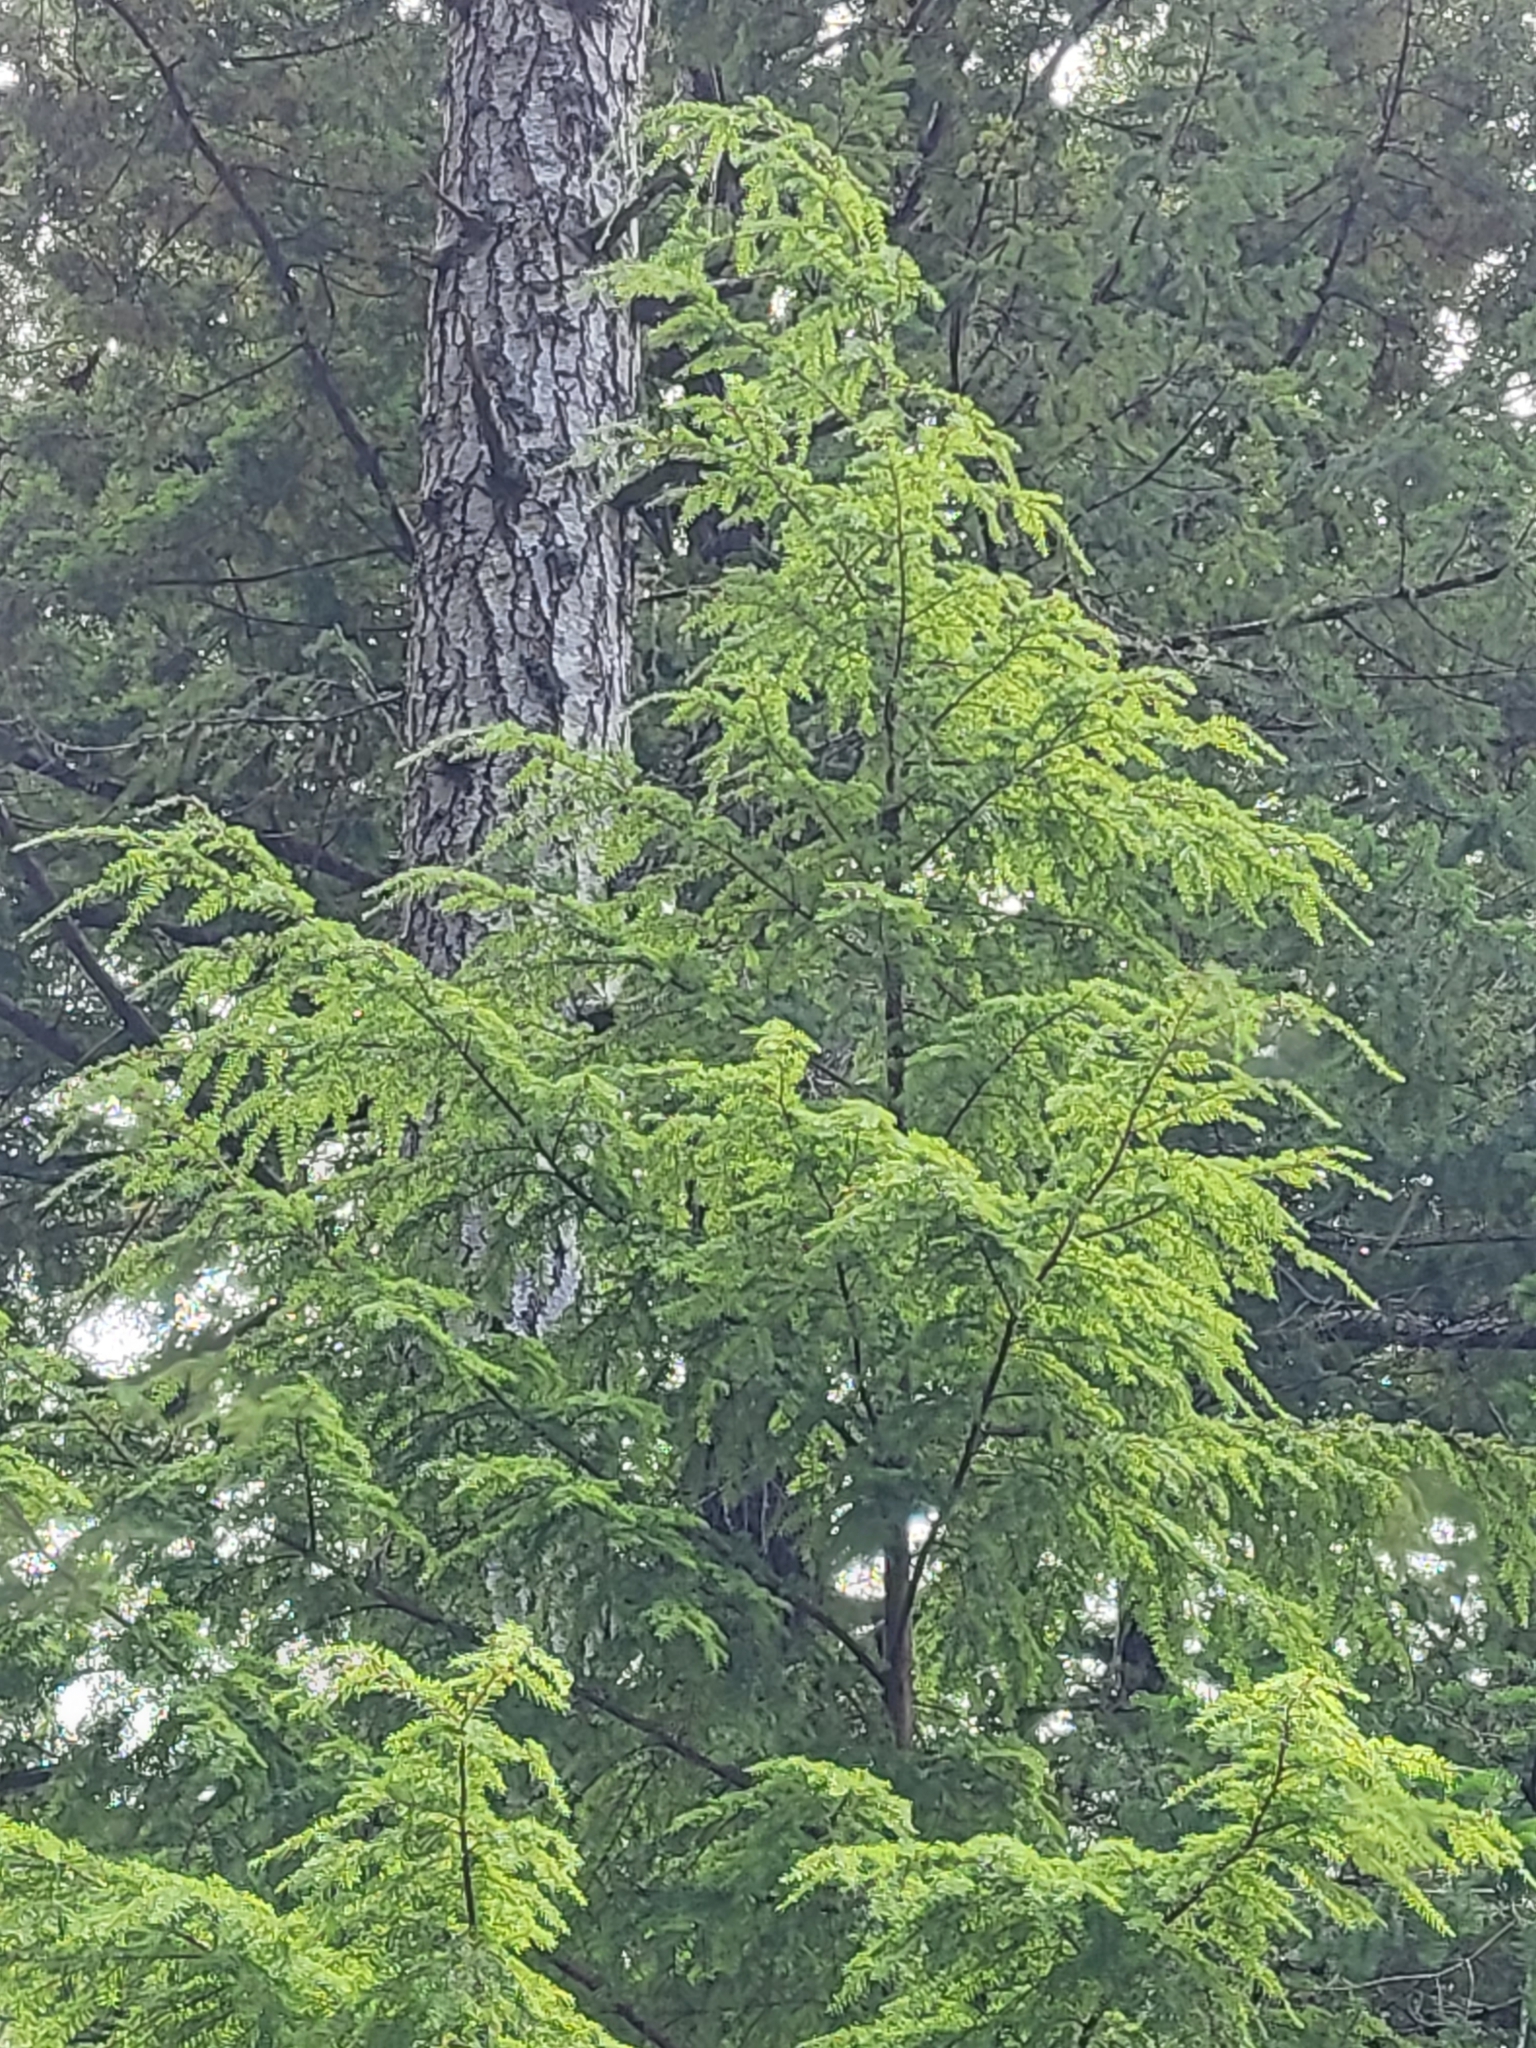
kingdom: Plantae
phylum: Tracheophyta
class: Pinopsida
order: Pinales
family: Pinaceae
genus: Tsuga
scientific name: Tsuga heterophylla
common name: Western hemlock
